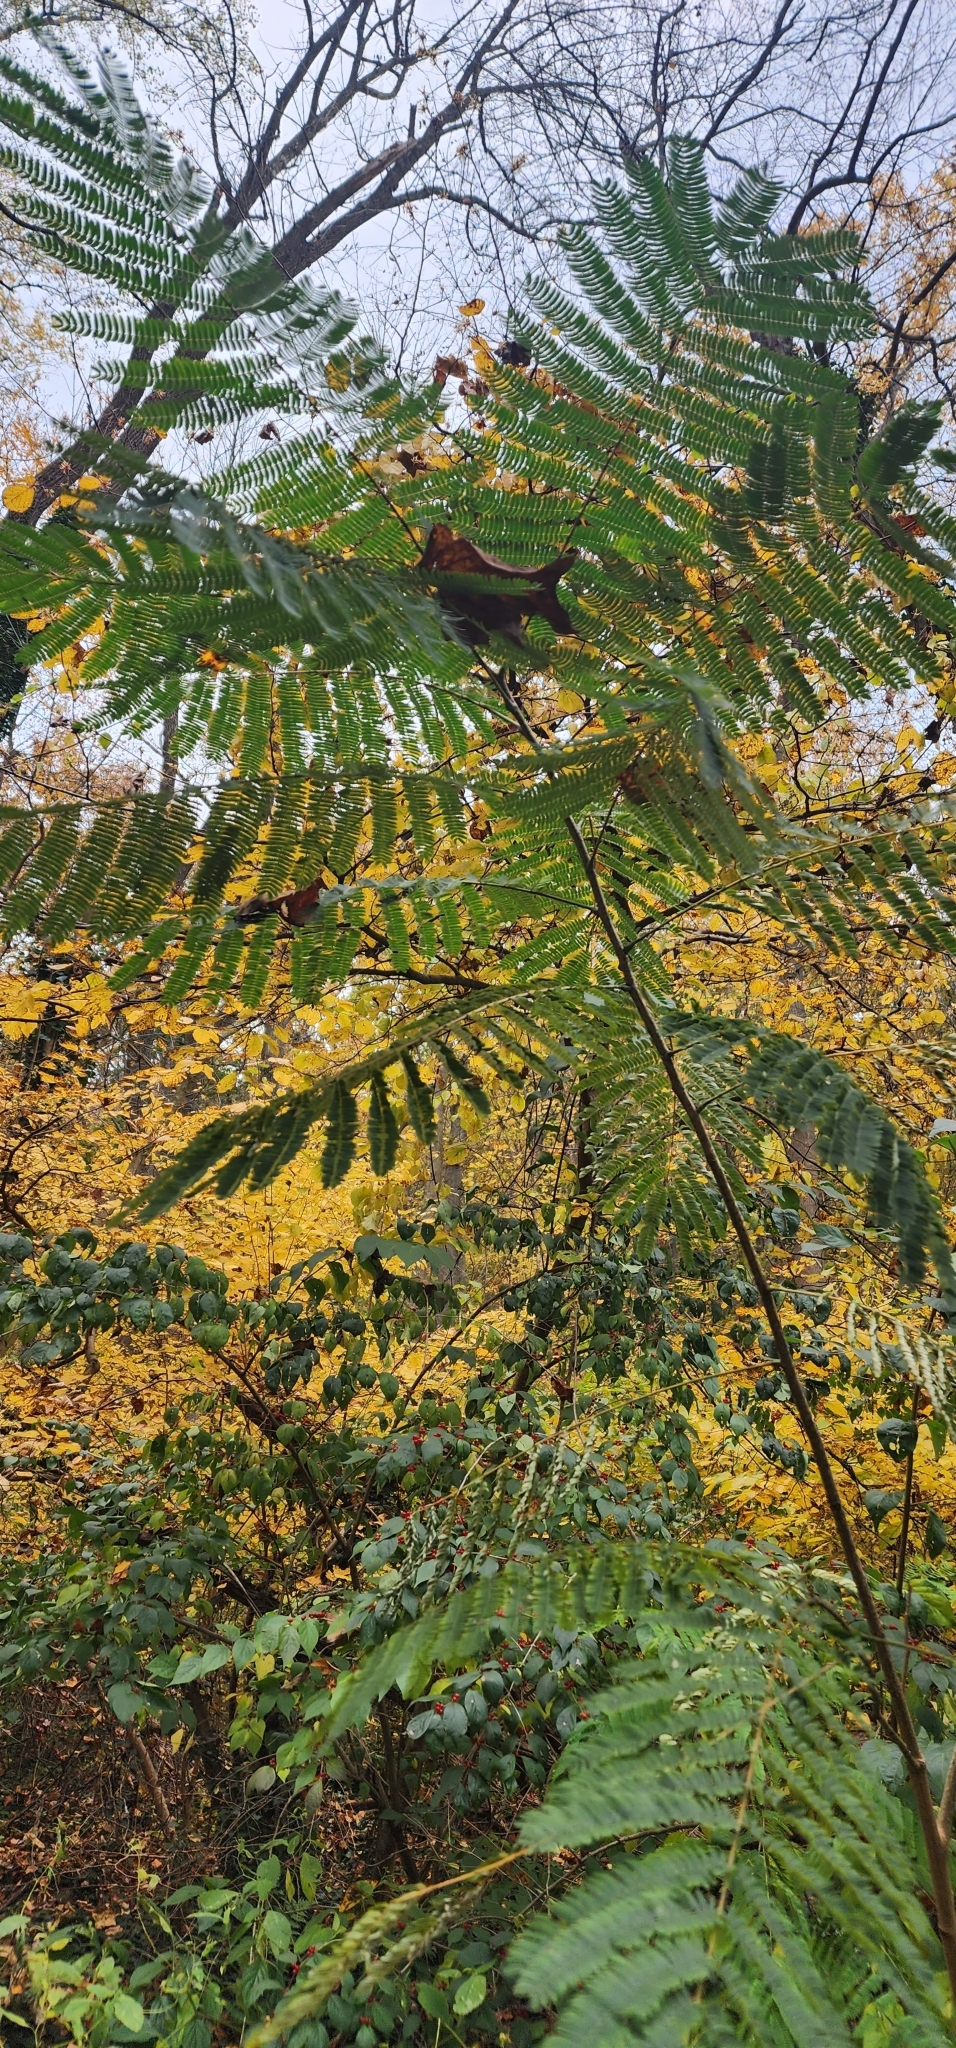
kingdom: Plantae
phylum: Tracheophyta
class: Magnoliopsida
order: Fabales
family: Fabaceae
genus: Albizia
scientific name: Albizia julibrissin
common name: Silktree
